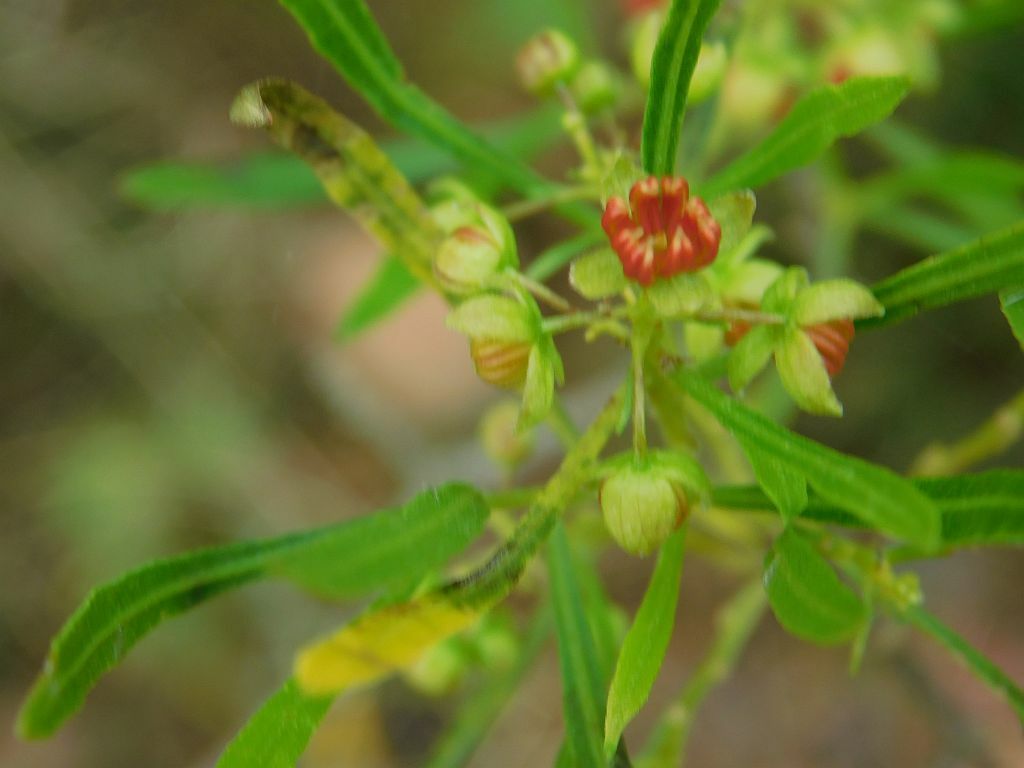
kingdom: Plantae
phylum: Tracheophyta
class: Magnoliopsida
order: Sapindales
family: Sapindaceae
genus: Dodonaea
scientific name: Dodonaea viscosa
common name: Hopbush
